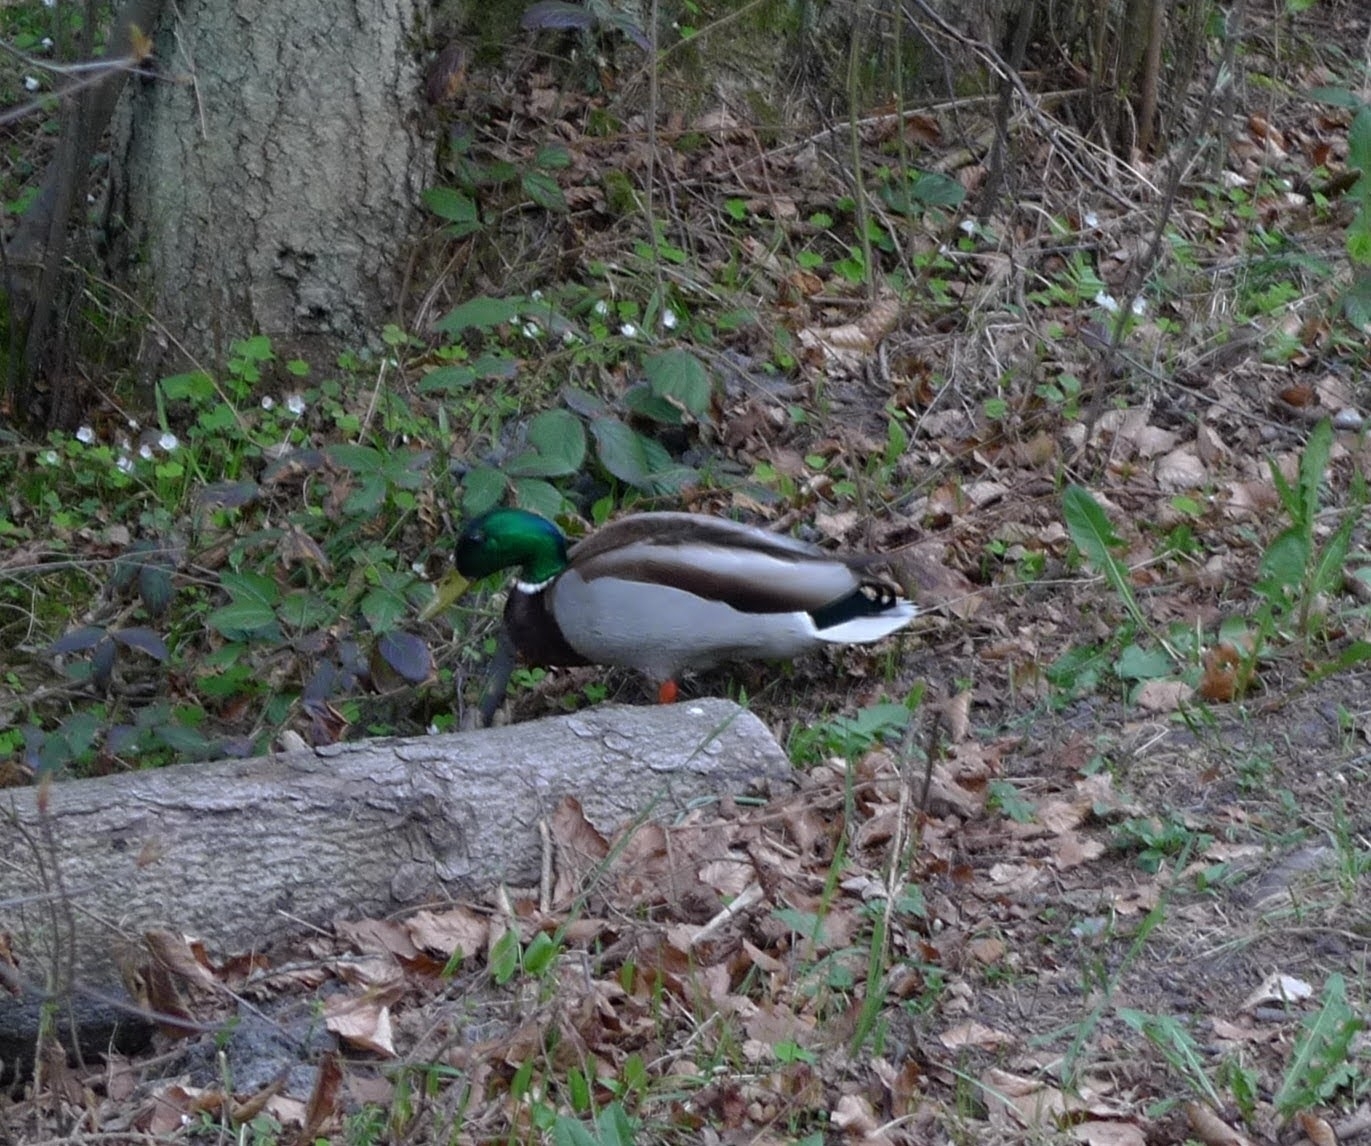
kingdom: Animalia
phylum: Chordata
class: Aves
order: Anseriformes
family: Anatidae
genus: Anas
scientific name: Anas platyrhynchos
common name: Mallard
